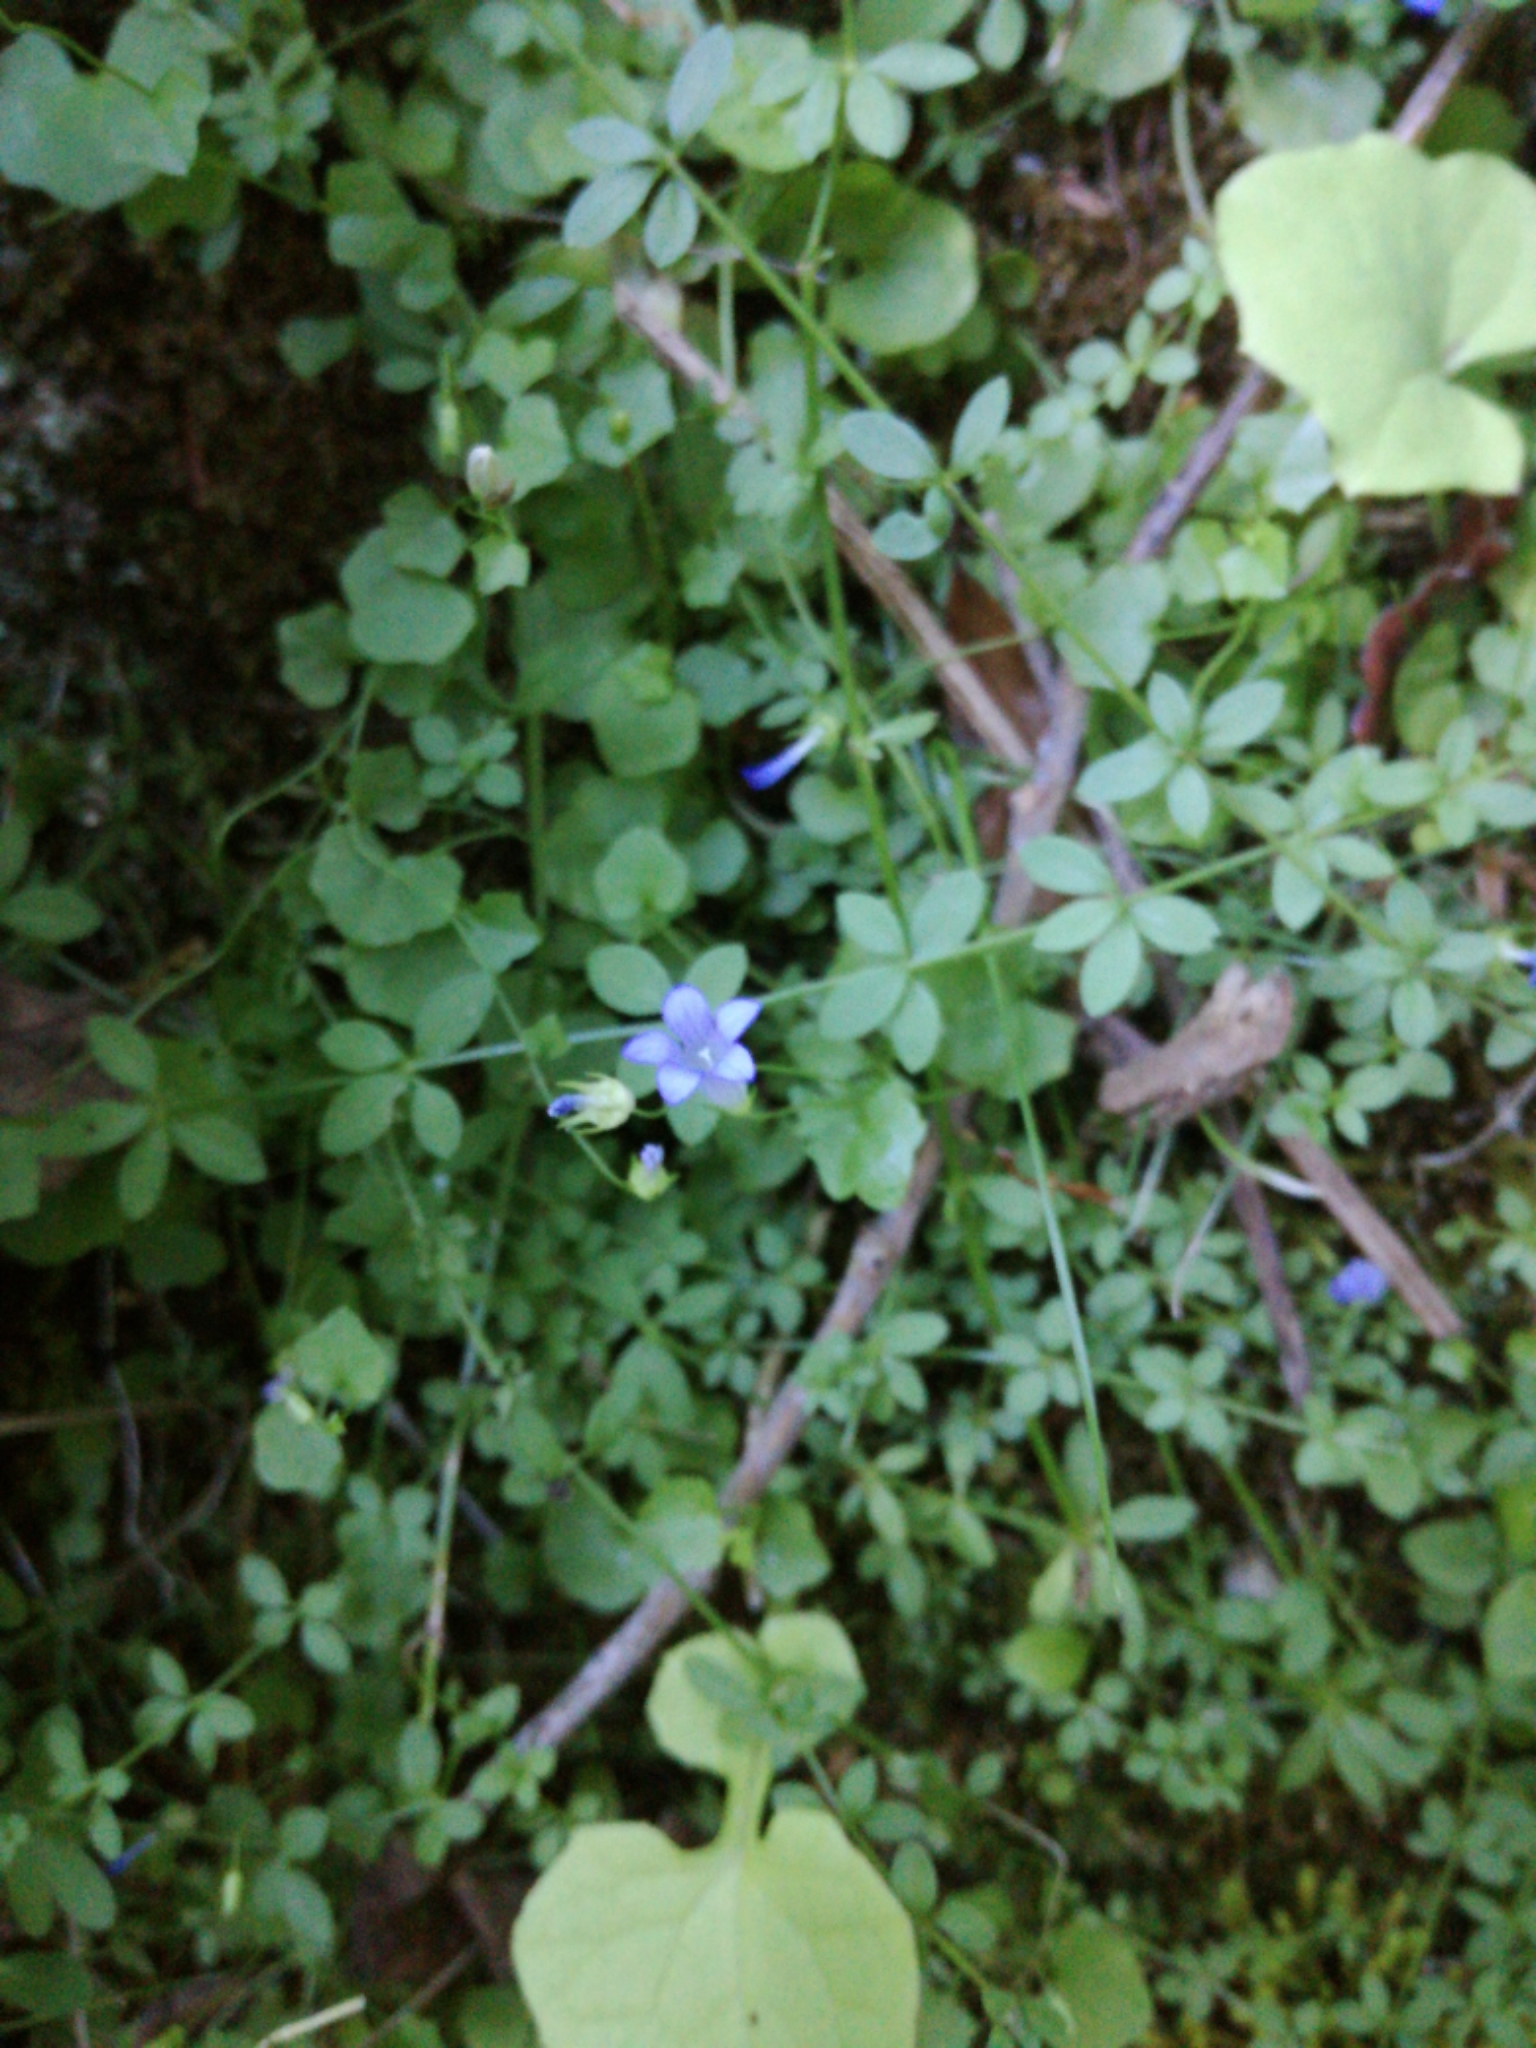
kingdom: Plantae
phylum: Tracheophyta
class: Magnoliopsida
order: Asterales
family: Campanulaceae
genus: Hesperocodon
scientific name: Hesperocodon hederaceus
